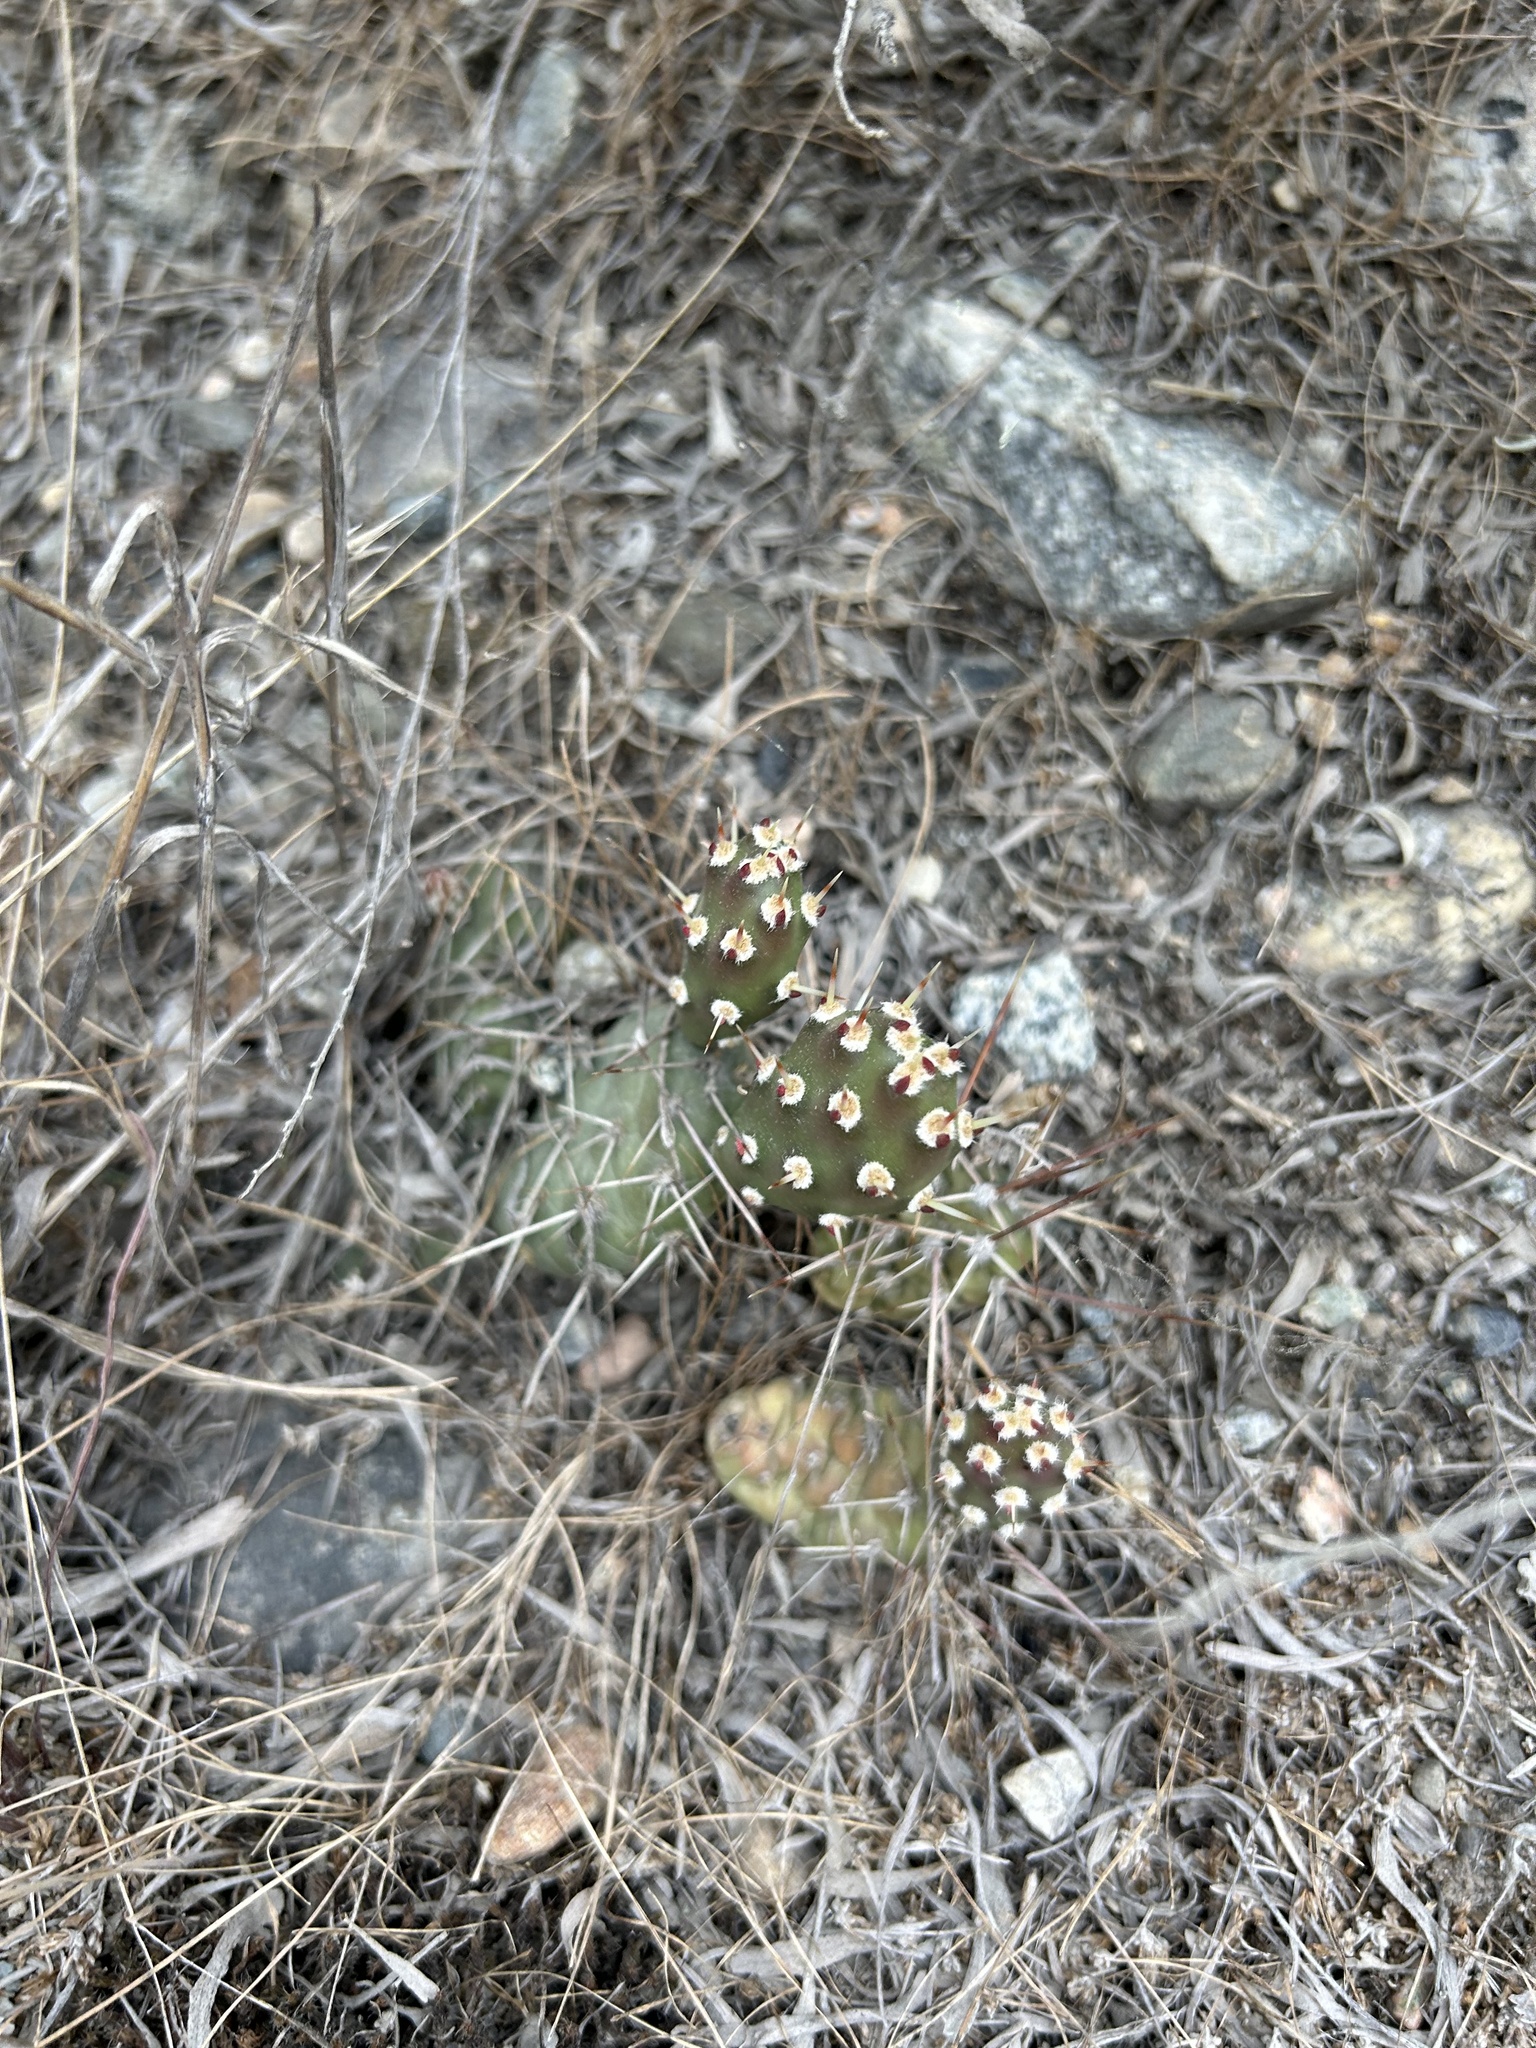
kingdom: Plantae
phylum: Tracheophyta
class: Magnoliopsida
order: Caryophyllales
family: Cactaceae
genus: Opuntia
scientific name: Opuntia fragilis
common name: Brittle cactus
